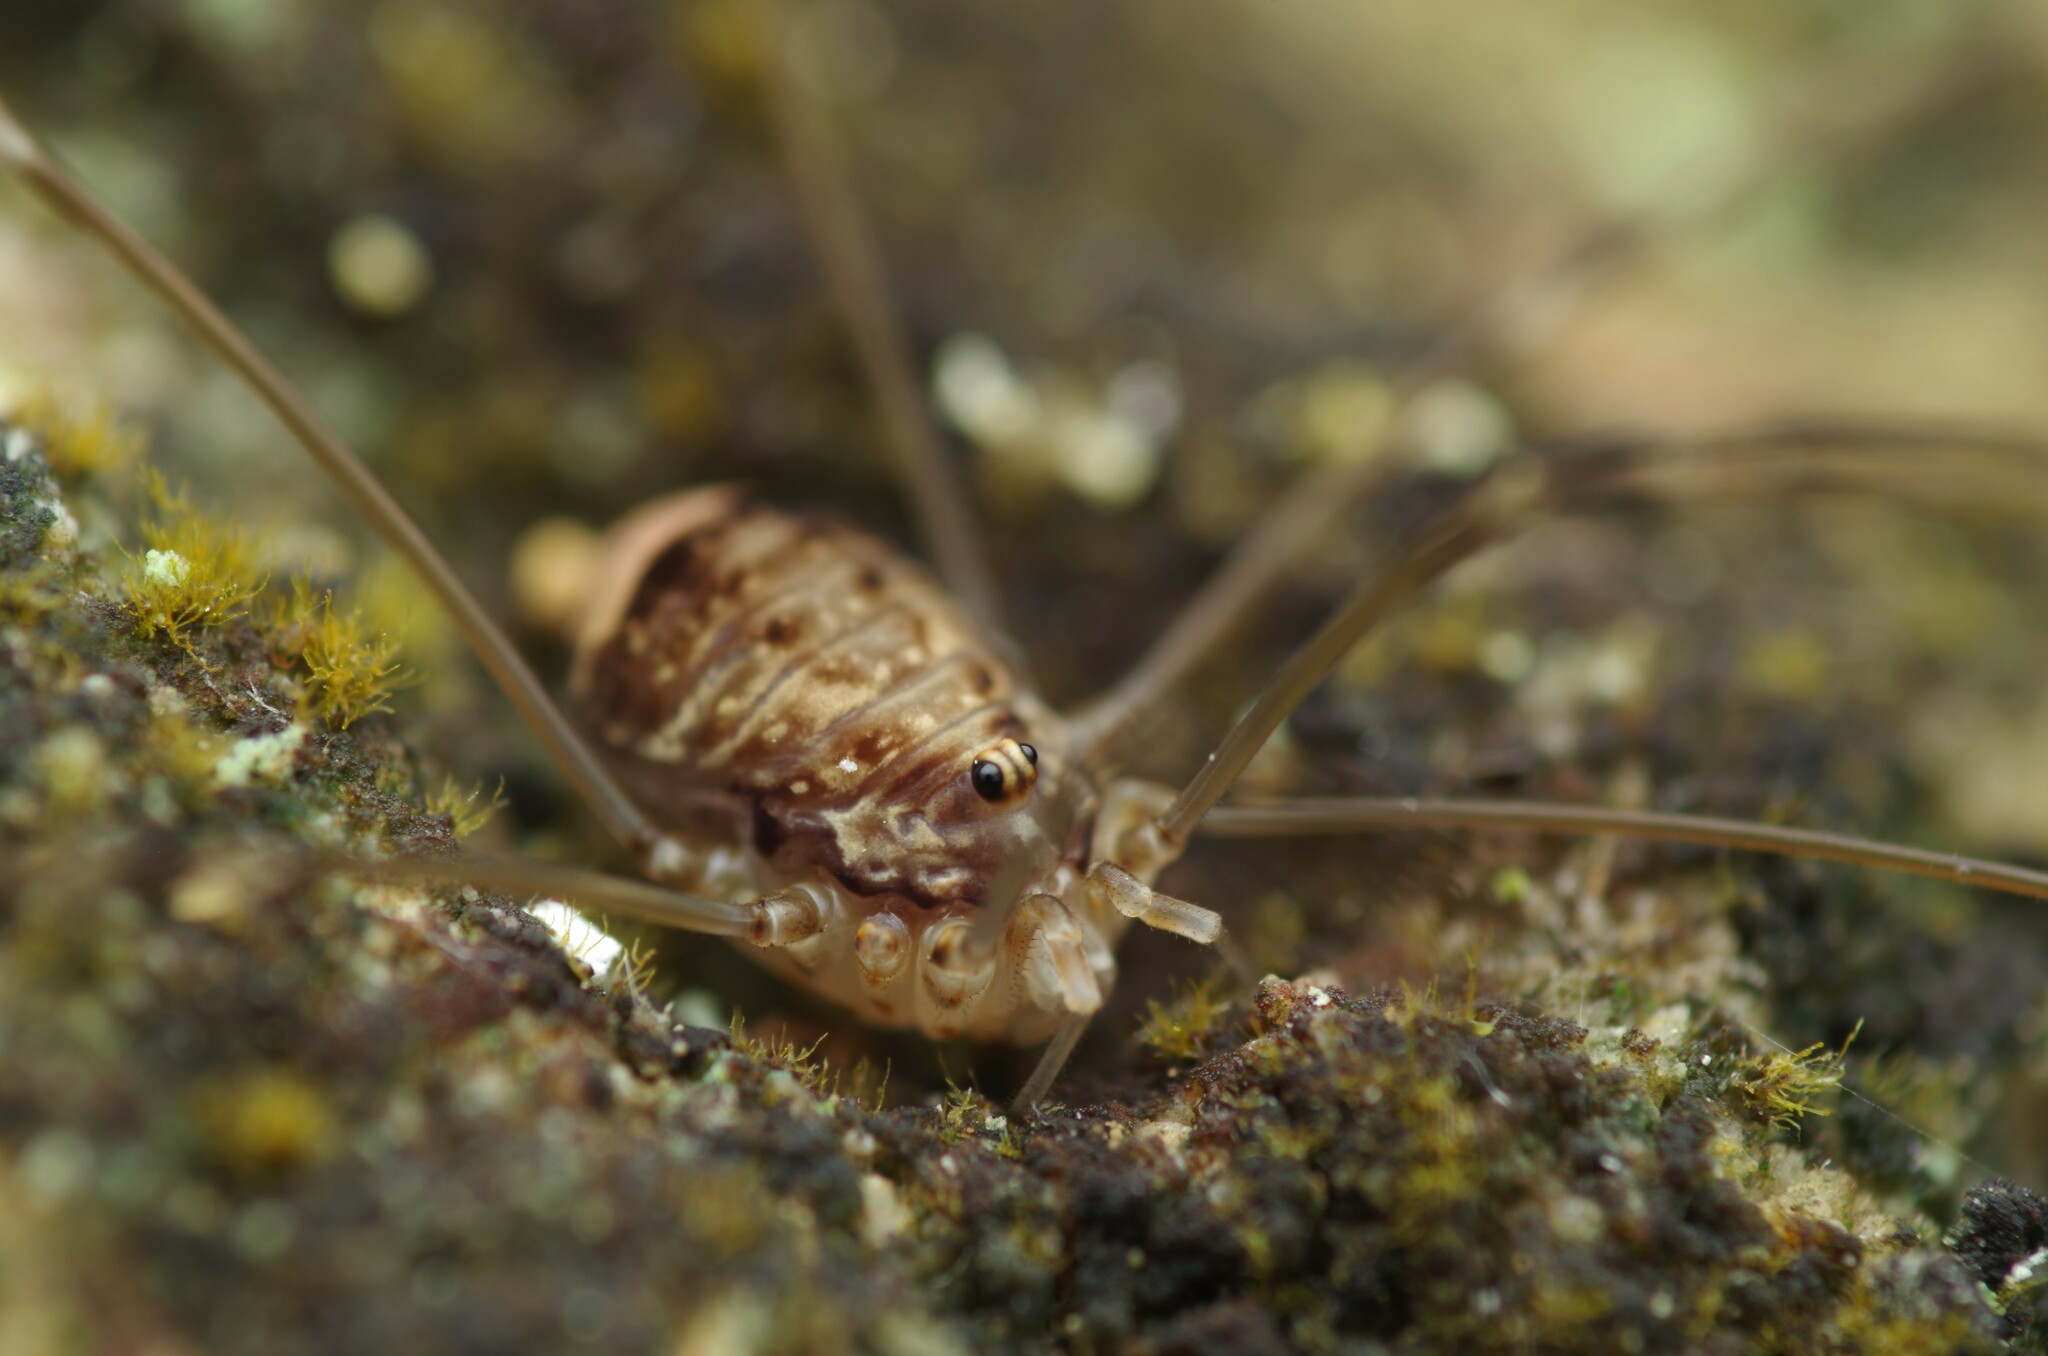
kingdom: Animalia
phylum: Arthropoda
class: Arachnida
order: Opiliones
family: Sclerosomatidae
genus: Leiobunum
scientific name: Leiobunum blackwalli
